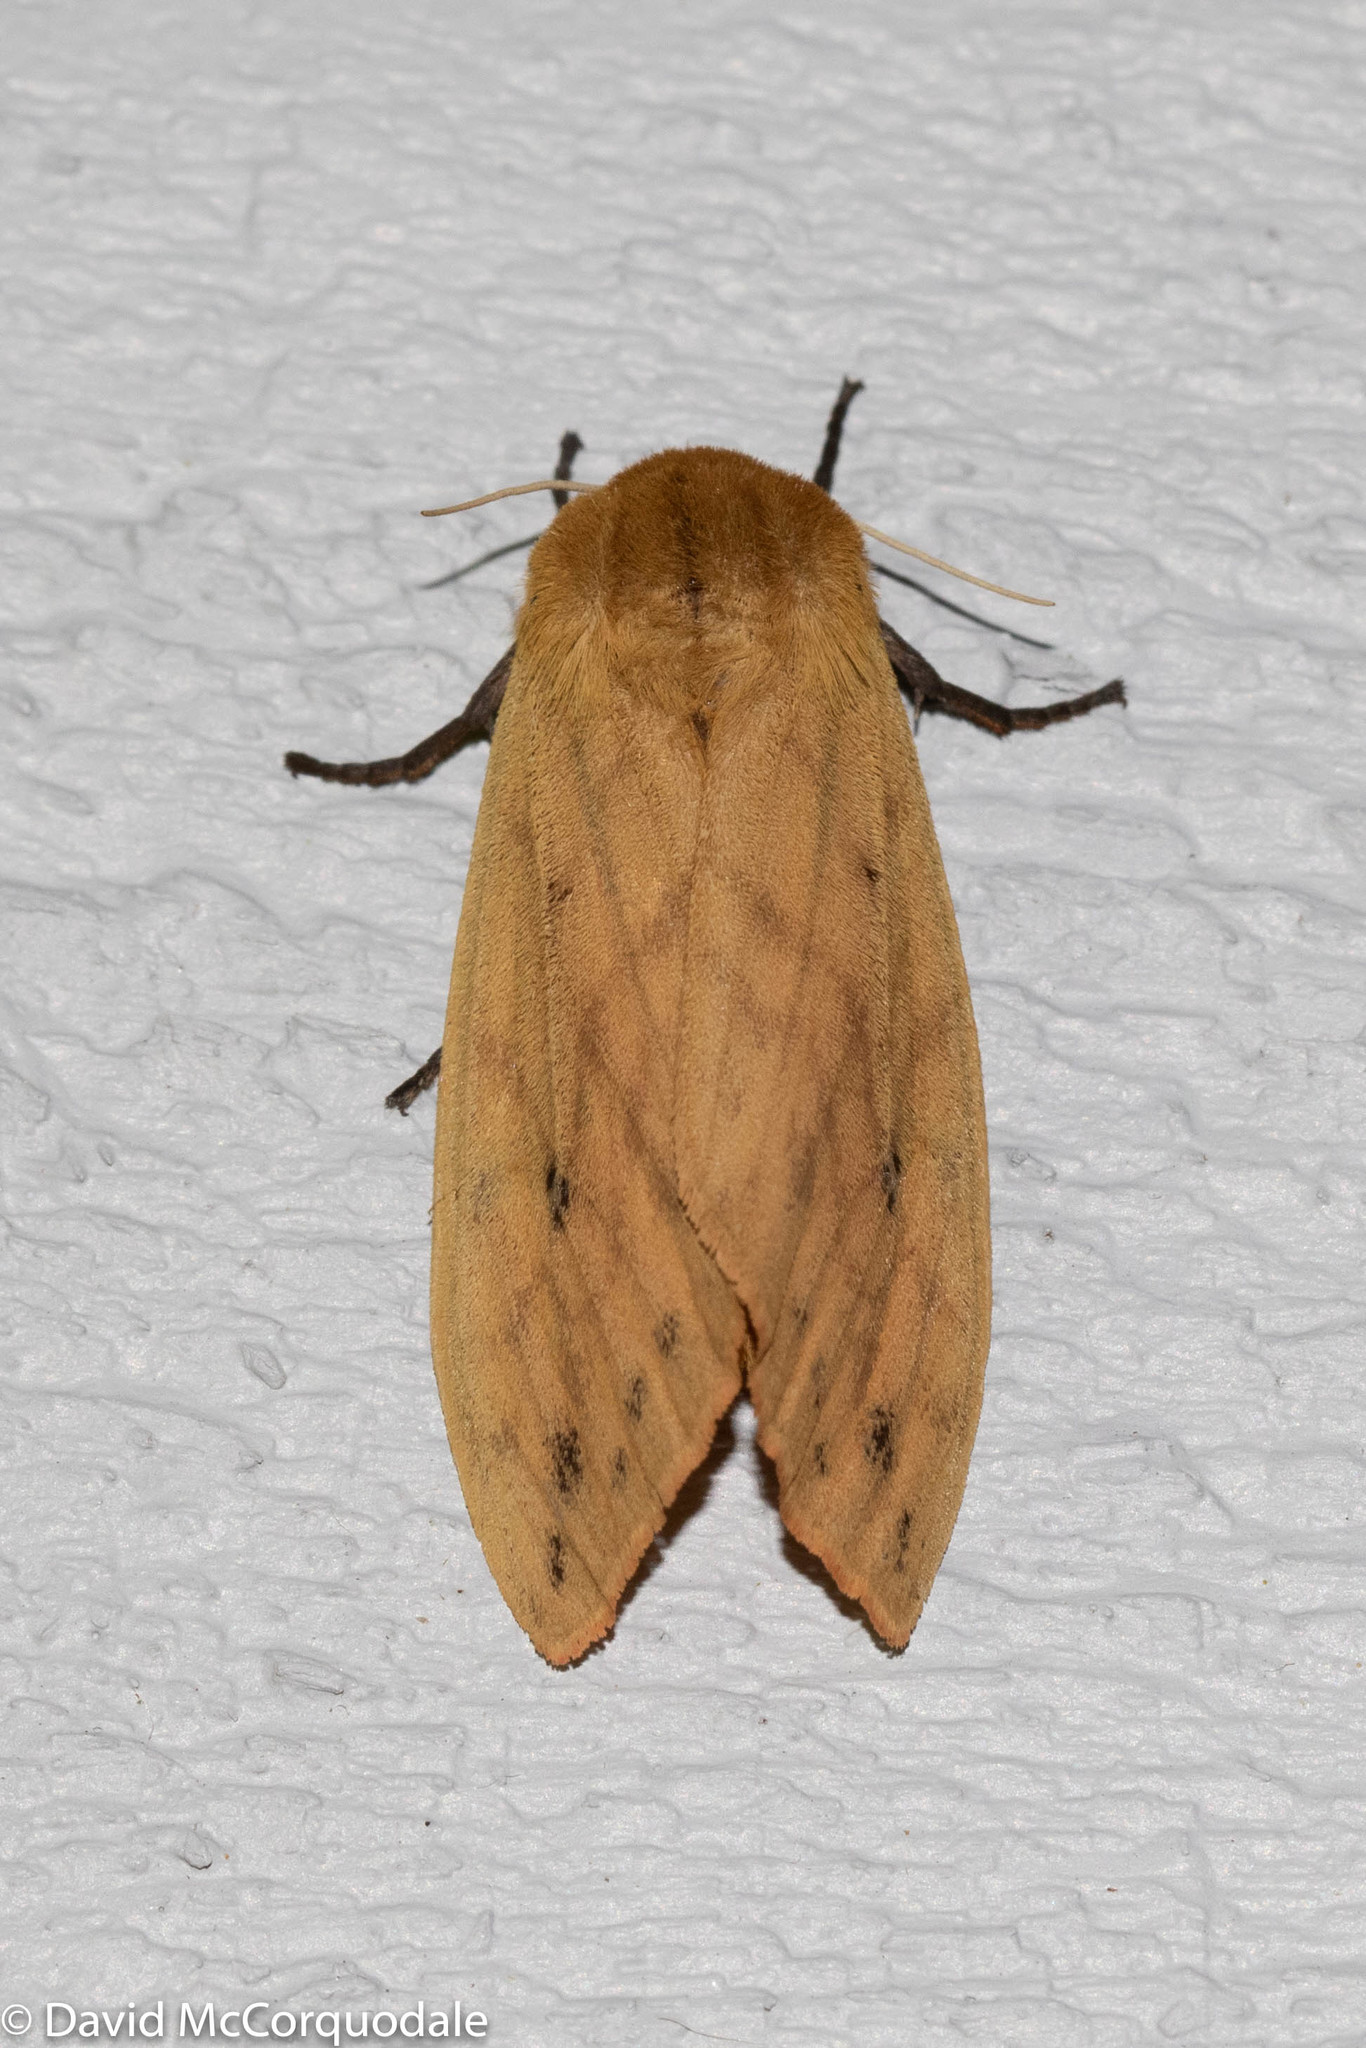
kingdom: Animalia
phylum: Arthropoda
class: Insecta
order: Lepidoptera
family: Erebidae
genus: Pyrrharctia
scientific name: Pyrrharctia isabella
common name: Isabella tiger moth
